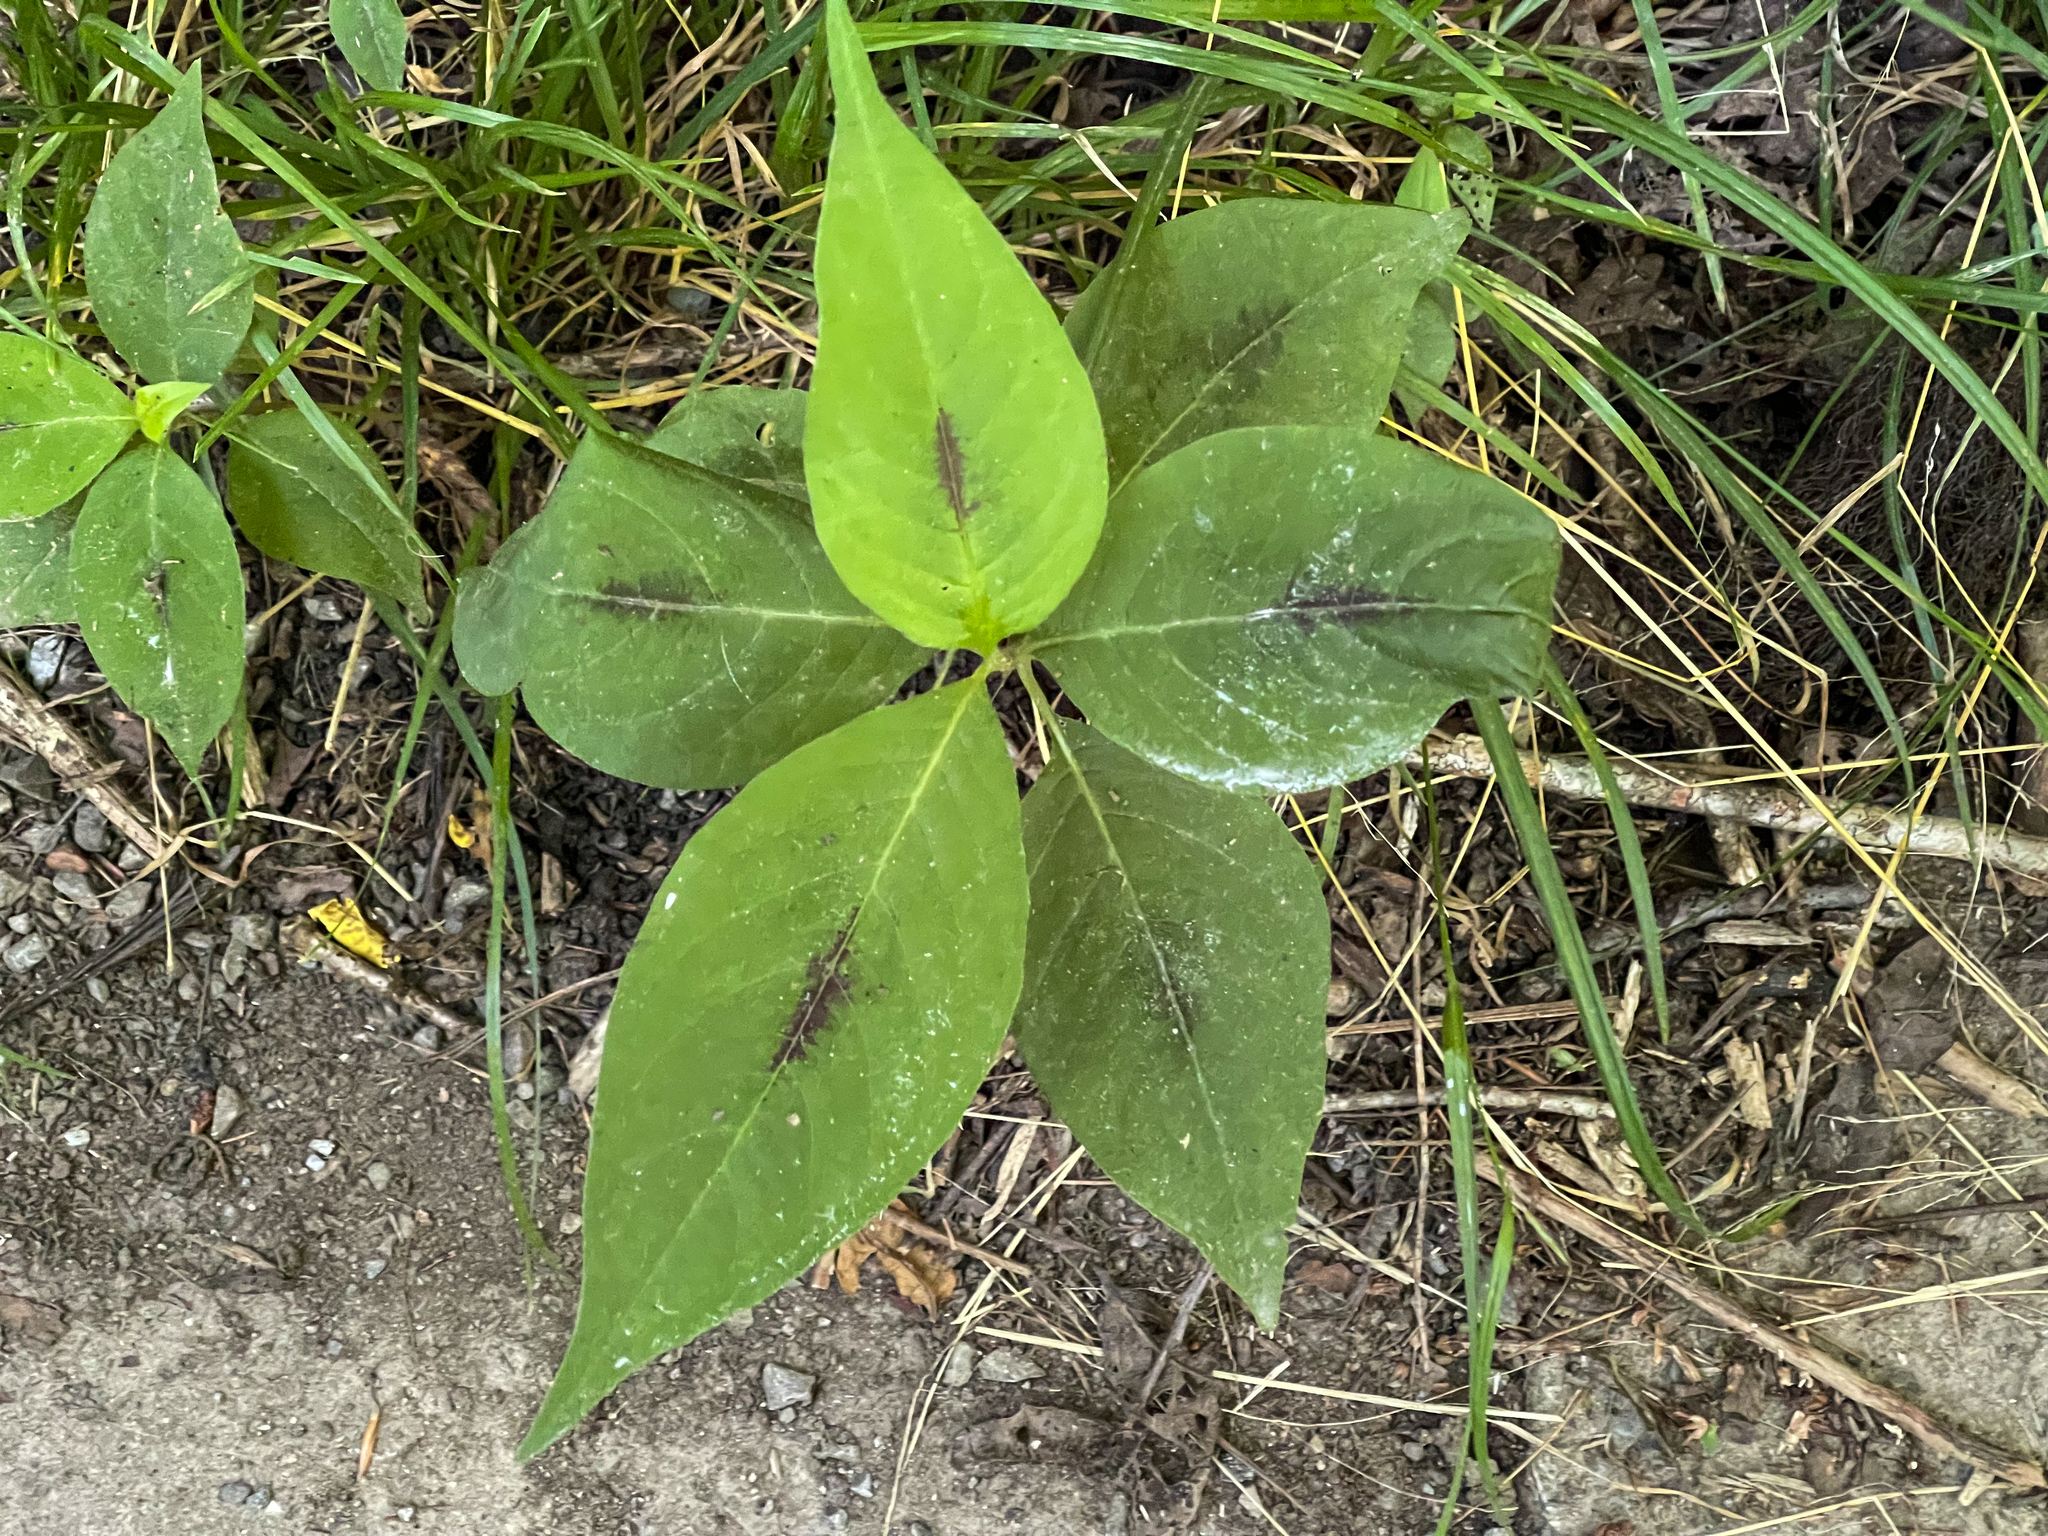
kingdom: Plantae
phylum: Tracheophyta
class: Magnoliopsida
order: Caryophyllales
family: Polygonaceae
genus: Persicaria
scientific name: Persicaria virginiana
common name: Jumpseed
